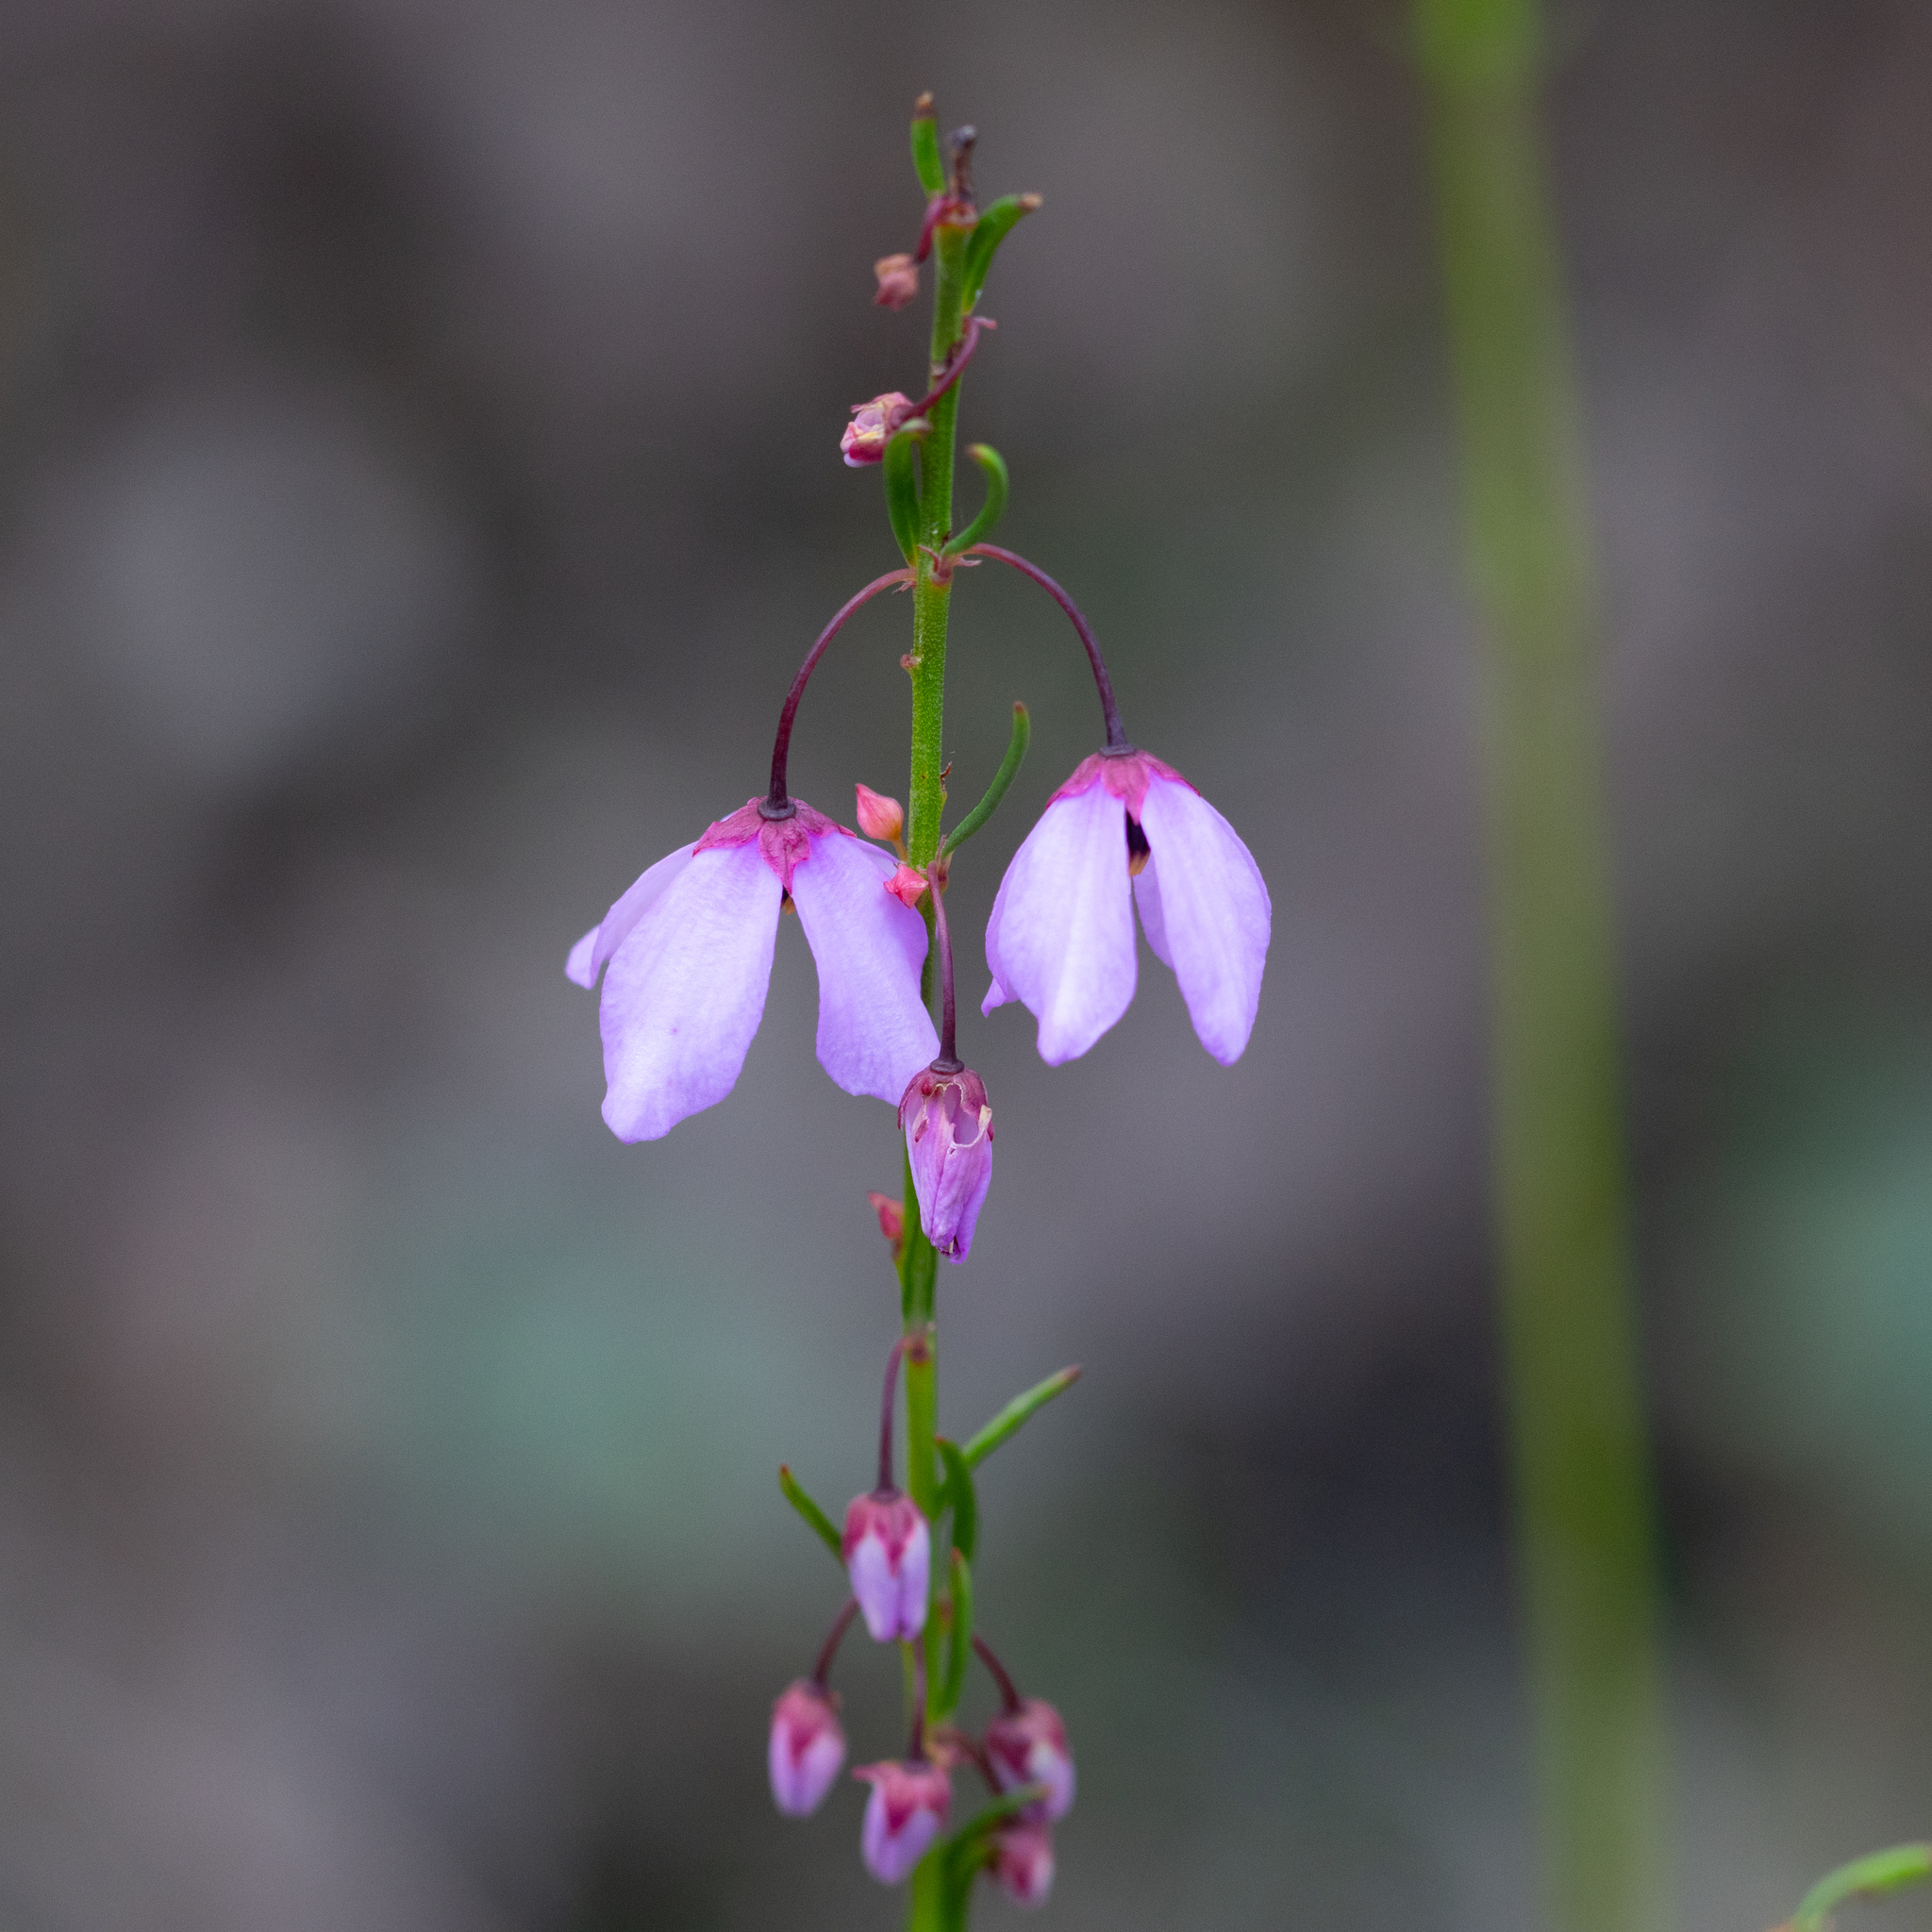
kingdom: Plantae
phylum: Tracheophyta
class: Magnoliopsida
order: Oxalidales
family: Elaeocarpaceae
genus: Tetratheca
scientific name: Tetratheca pilosa
